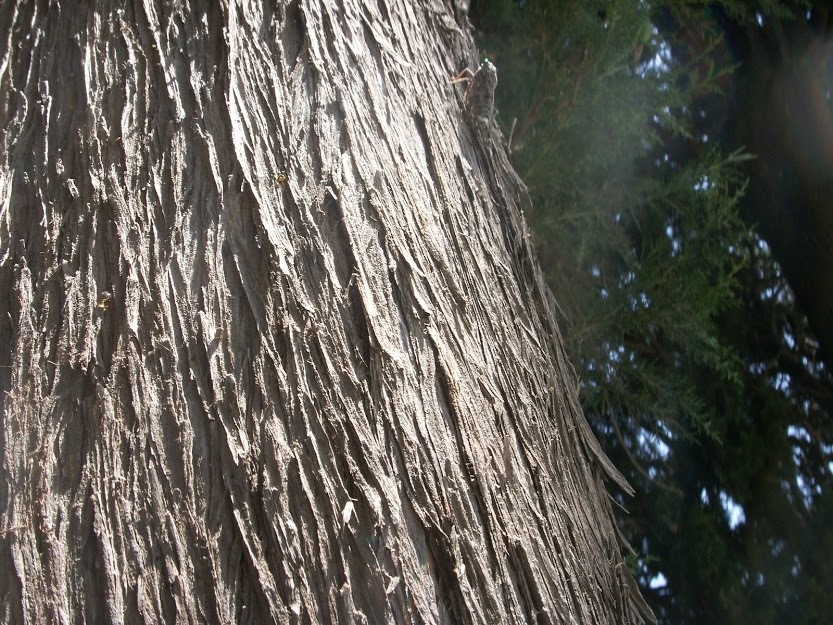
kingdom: Animalia
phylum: Arthropoda
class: Insecta
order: Hemiptera
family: Cicadidae
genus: Cicada
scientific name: Cicada orni
